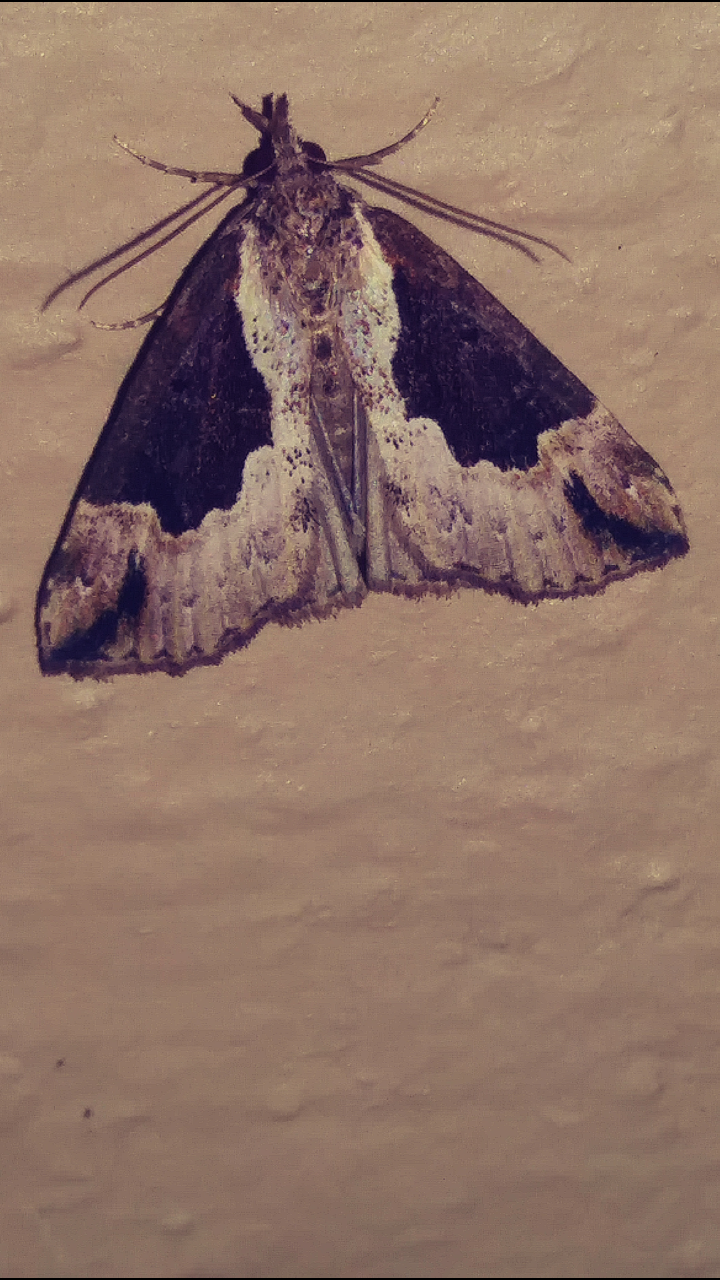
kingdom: Animalia
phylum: Arthropoda
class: Insecta
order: Lepidoptera
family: Erebidae
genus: Hypena
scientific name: Hypena baltimoralis
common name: Baltimore snout
